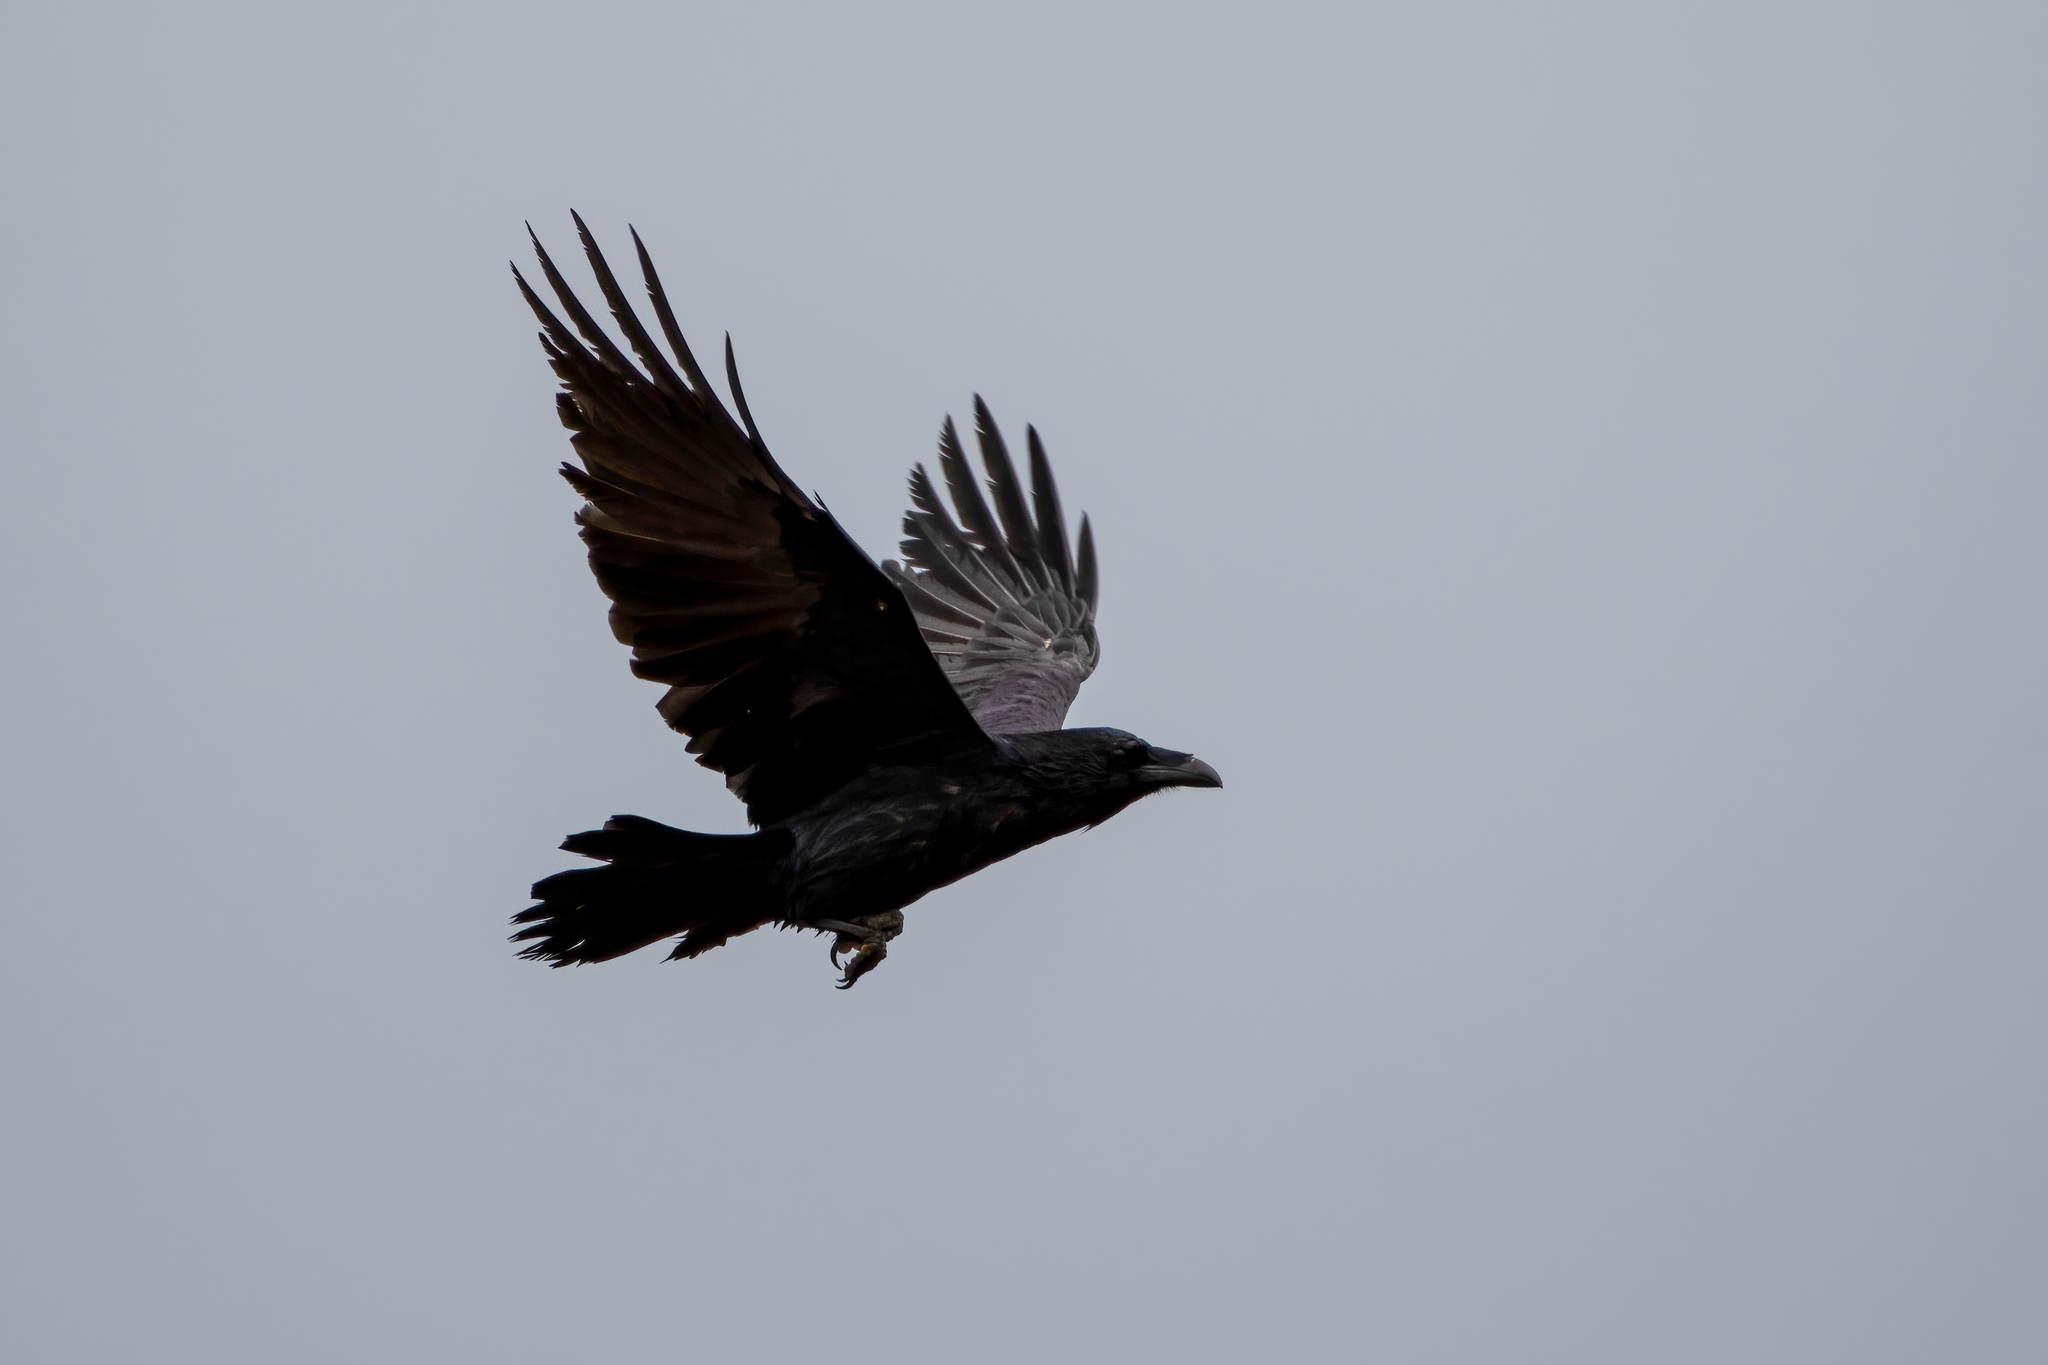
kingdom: Animalia
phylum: Chordata
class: Aves
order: Passeriformes
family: Corvidae
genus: Corvus
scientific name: Corvus corax
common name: Common raven
